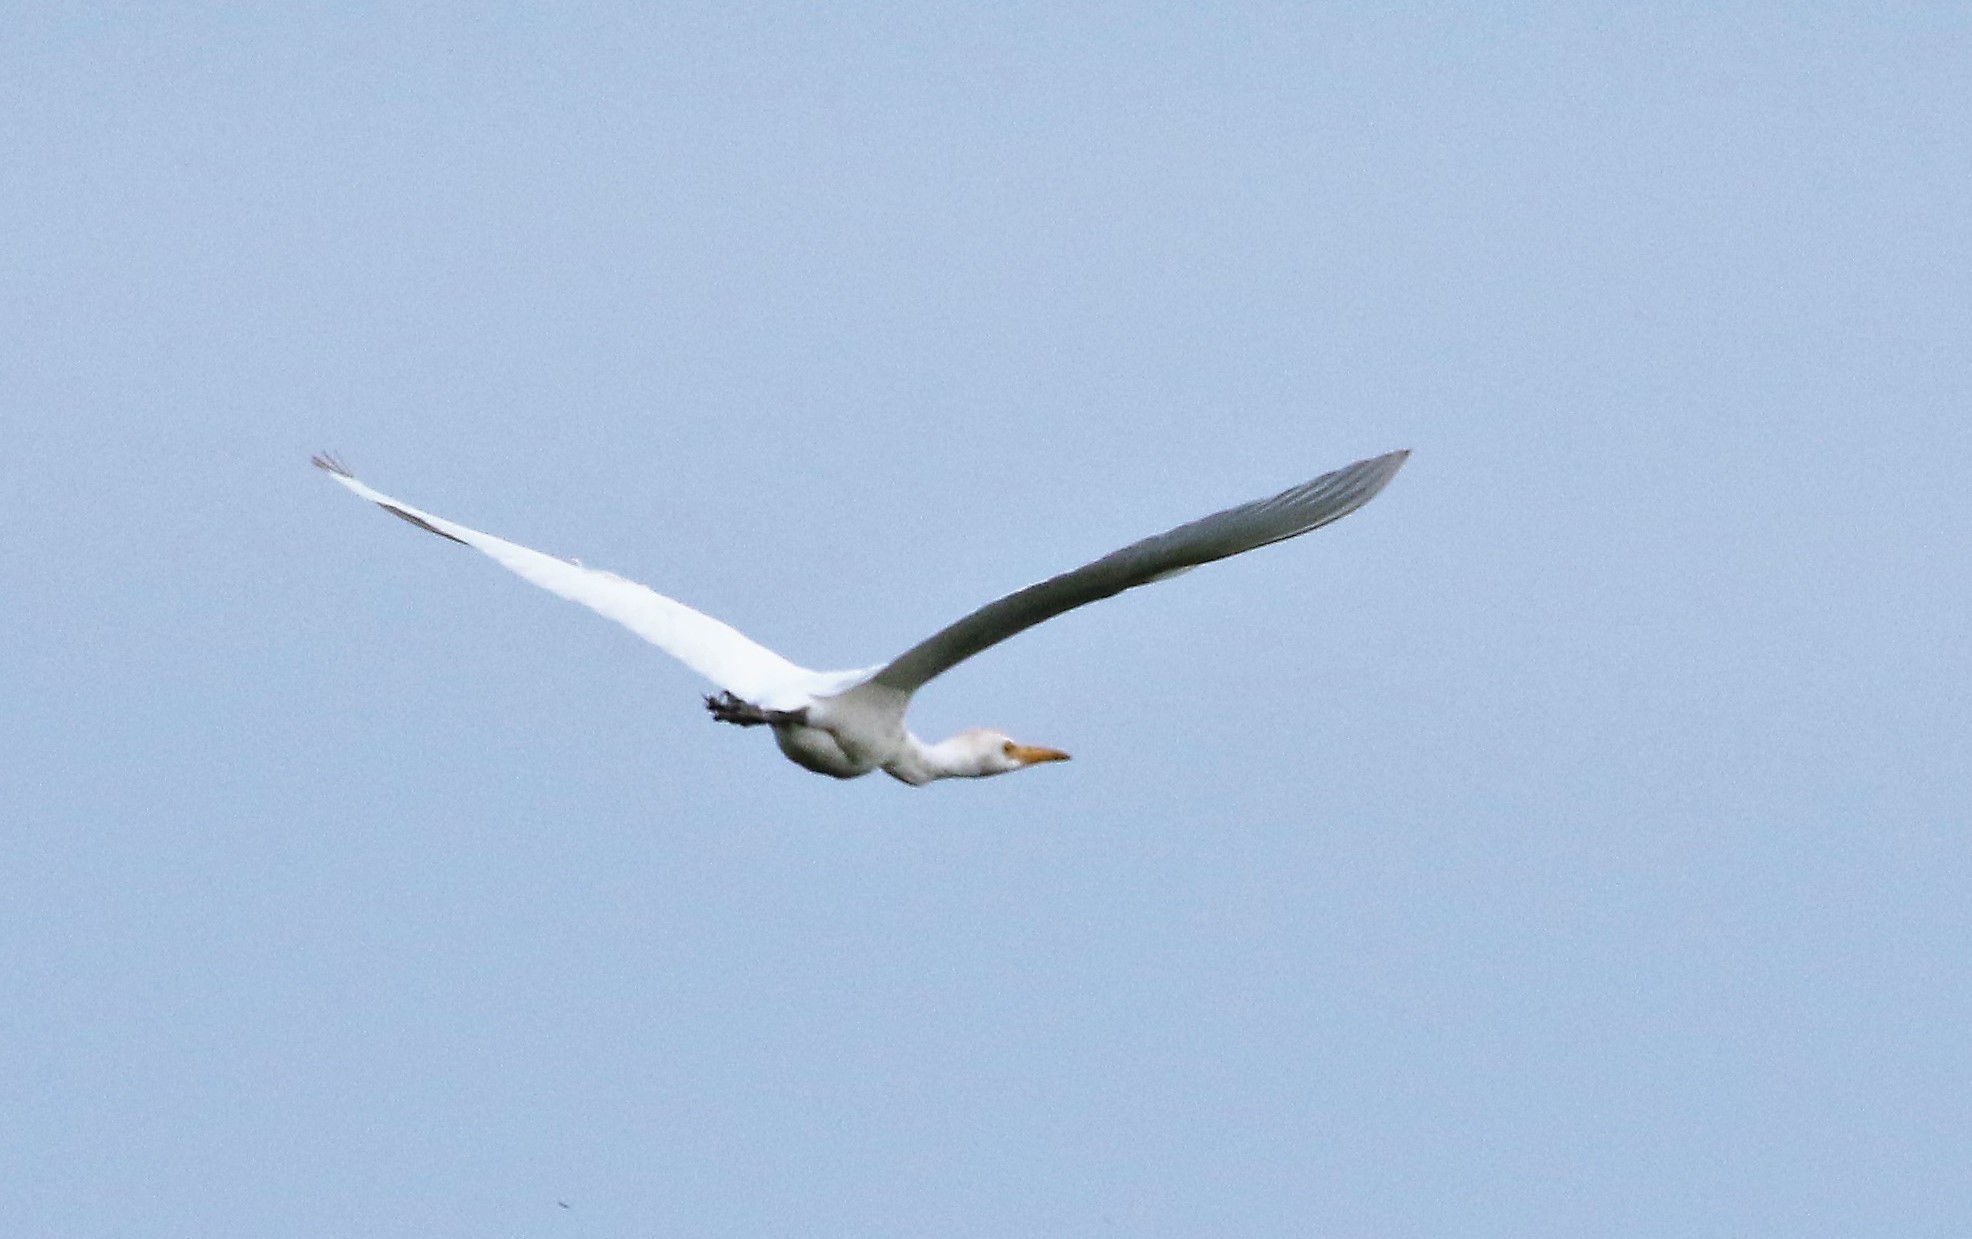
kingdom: Animalia
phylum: Chordata
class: Aves
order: Pelecaniformes
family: Ardeidae
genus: Bubulcus
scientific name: Bubulcus ibis
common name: Cattle egret
